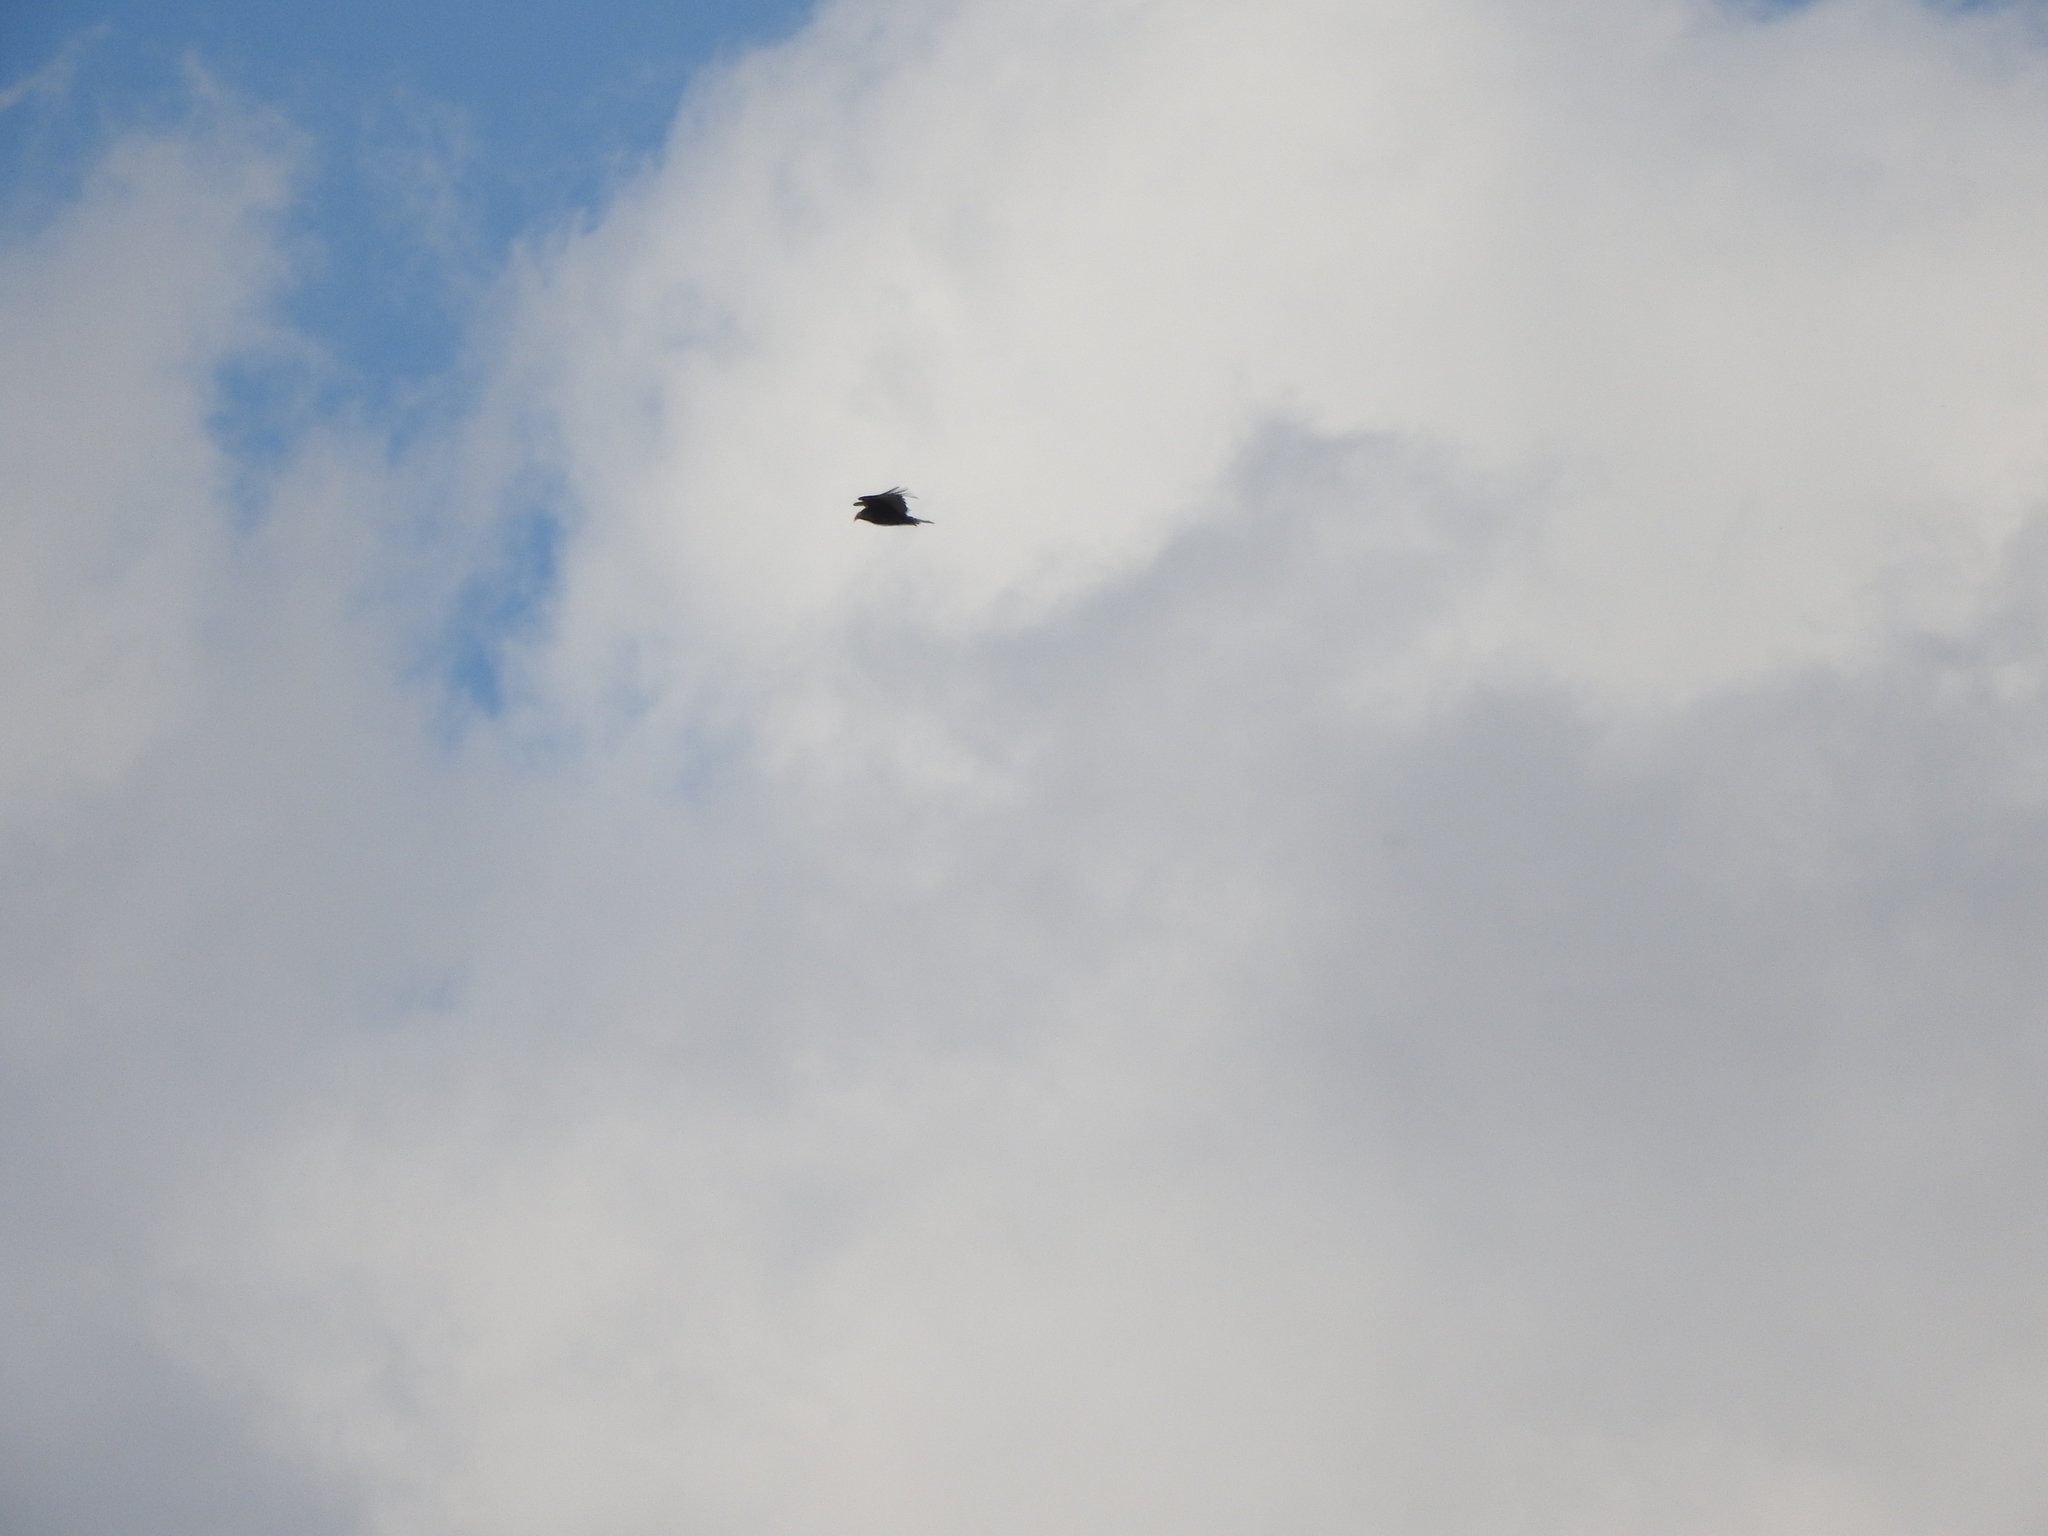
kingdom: Animalia
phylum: Chordata
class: Aves
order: Accipitriformes
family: Cathartidae
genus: Cathartes
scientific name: Cathartes aura
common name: Turkey vulture
